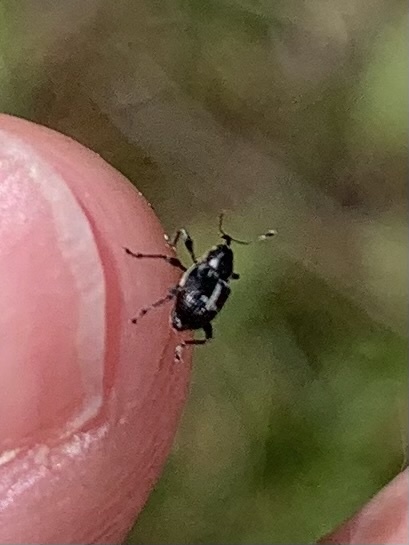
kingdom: Animalia
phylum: Arthropoda
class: Insecta
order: Coleoptera
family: Curculionidae
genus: Archarius
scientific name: Archarius crux
